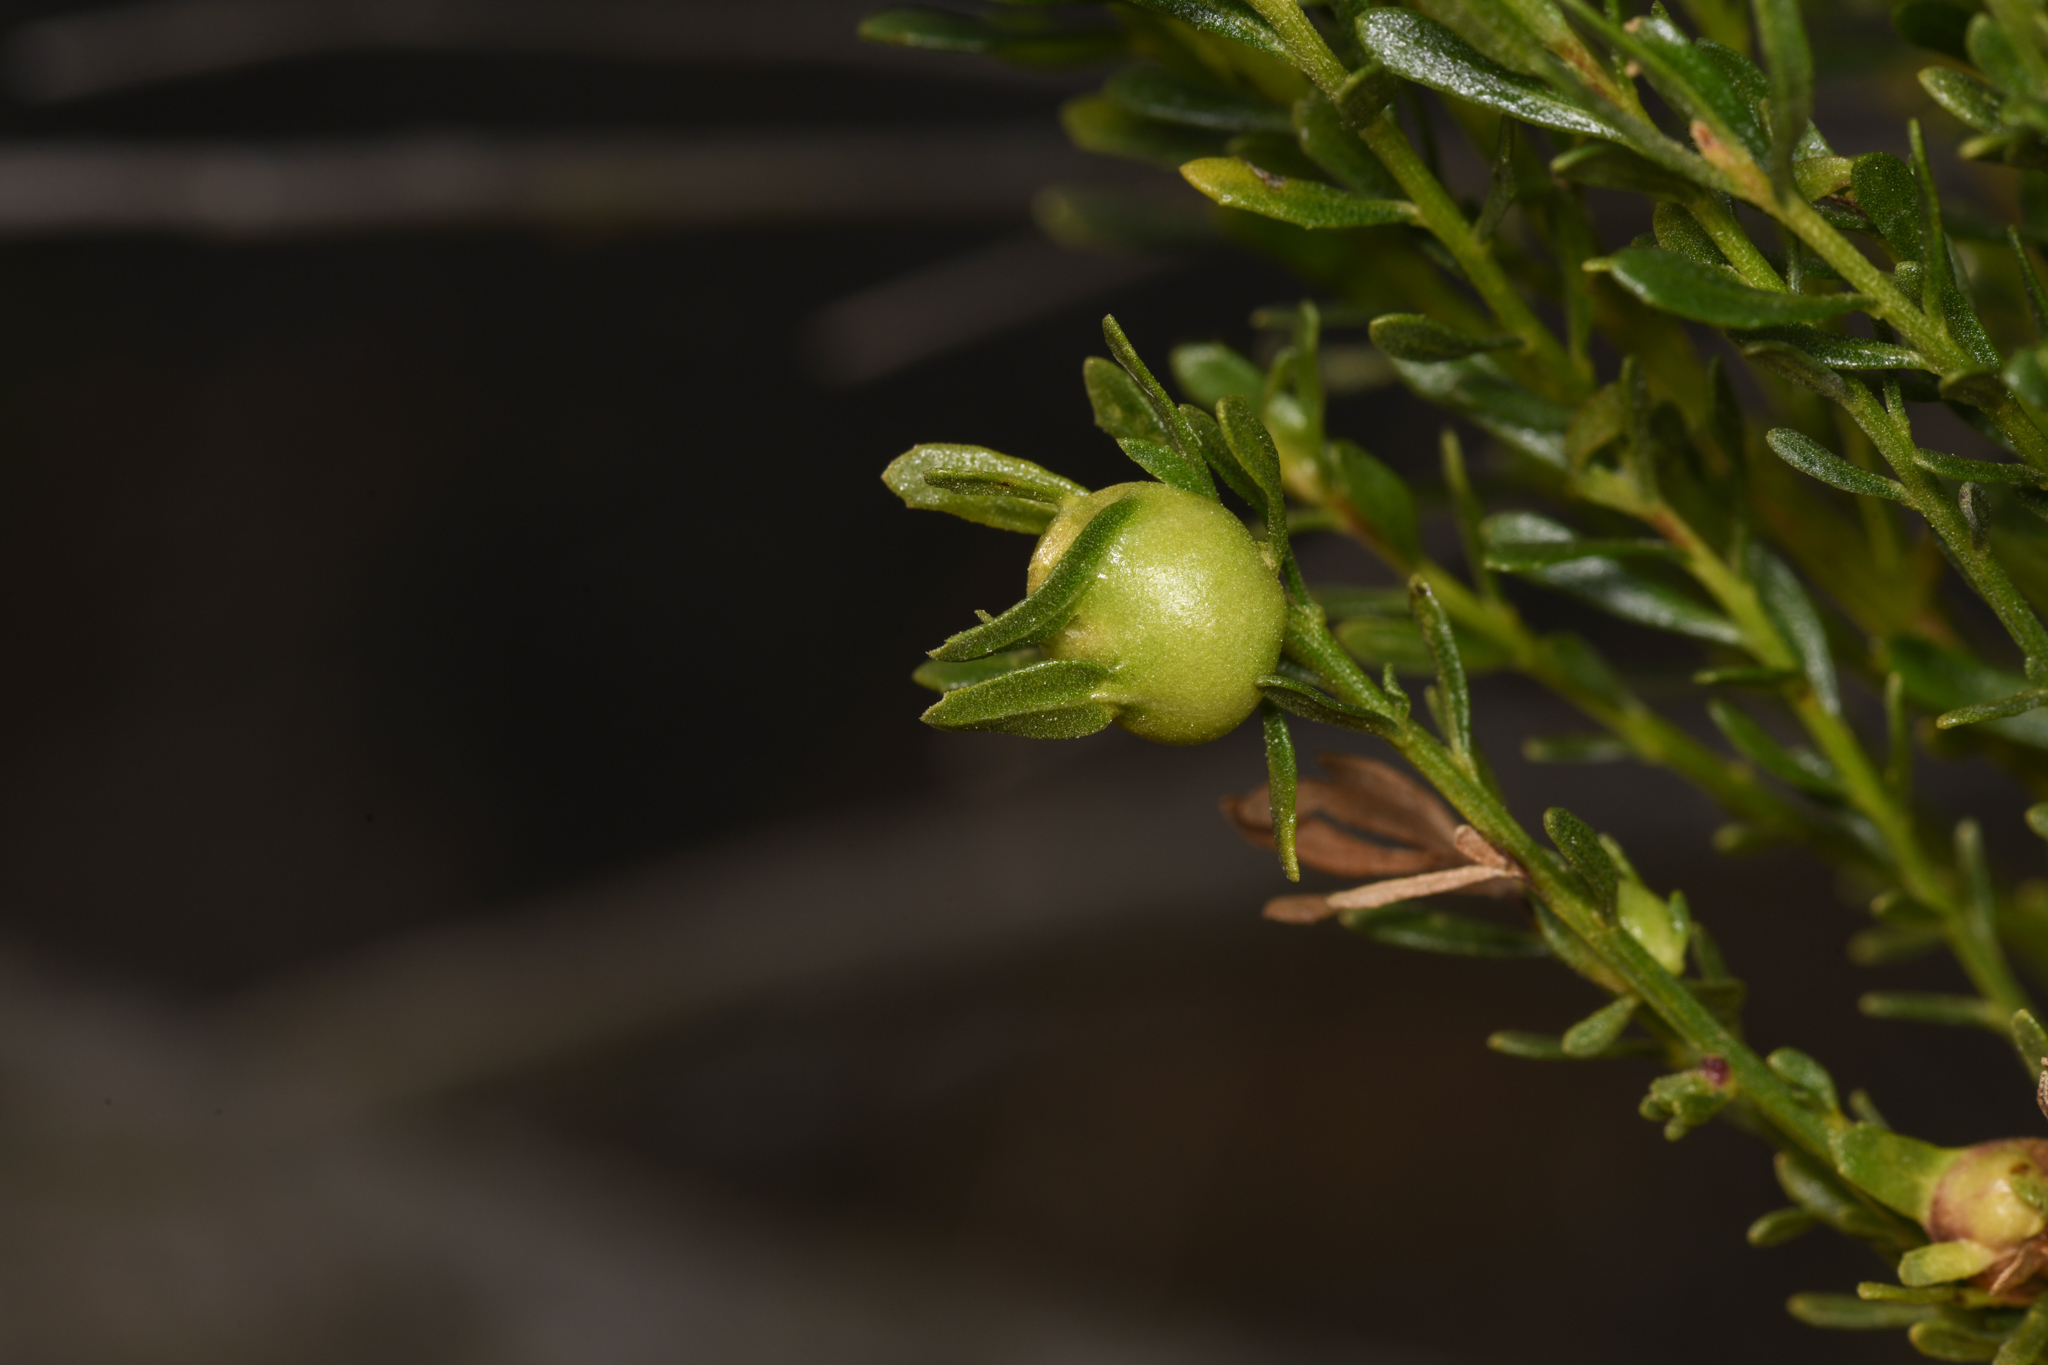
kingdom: Animalia
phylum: Arthropoda
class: Insecta
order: Diptera
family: Cecidomyiidae
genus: Rhopalomyia
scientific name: Rhopalomyia californica
